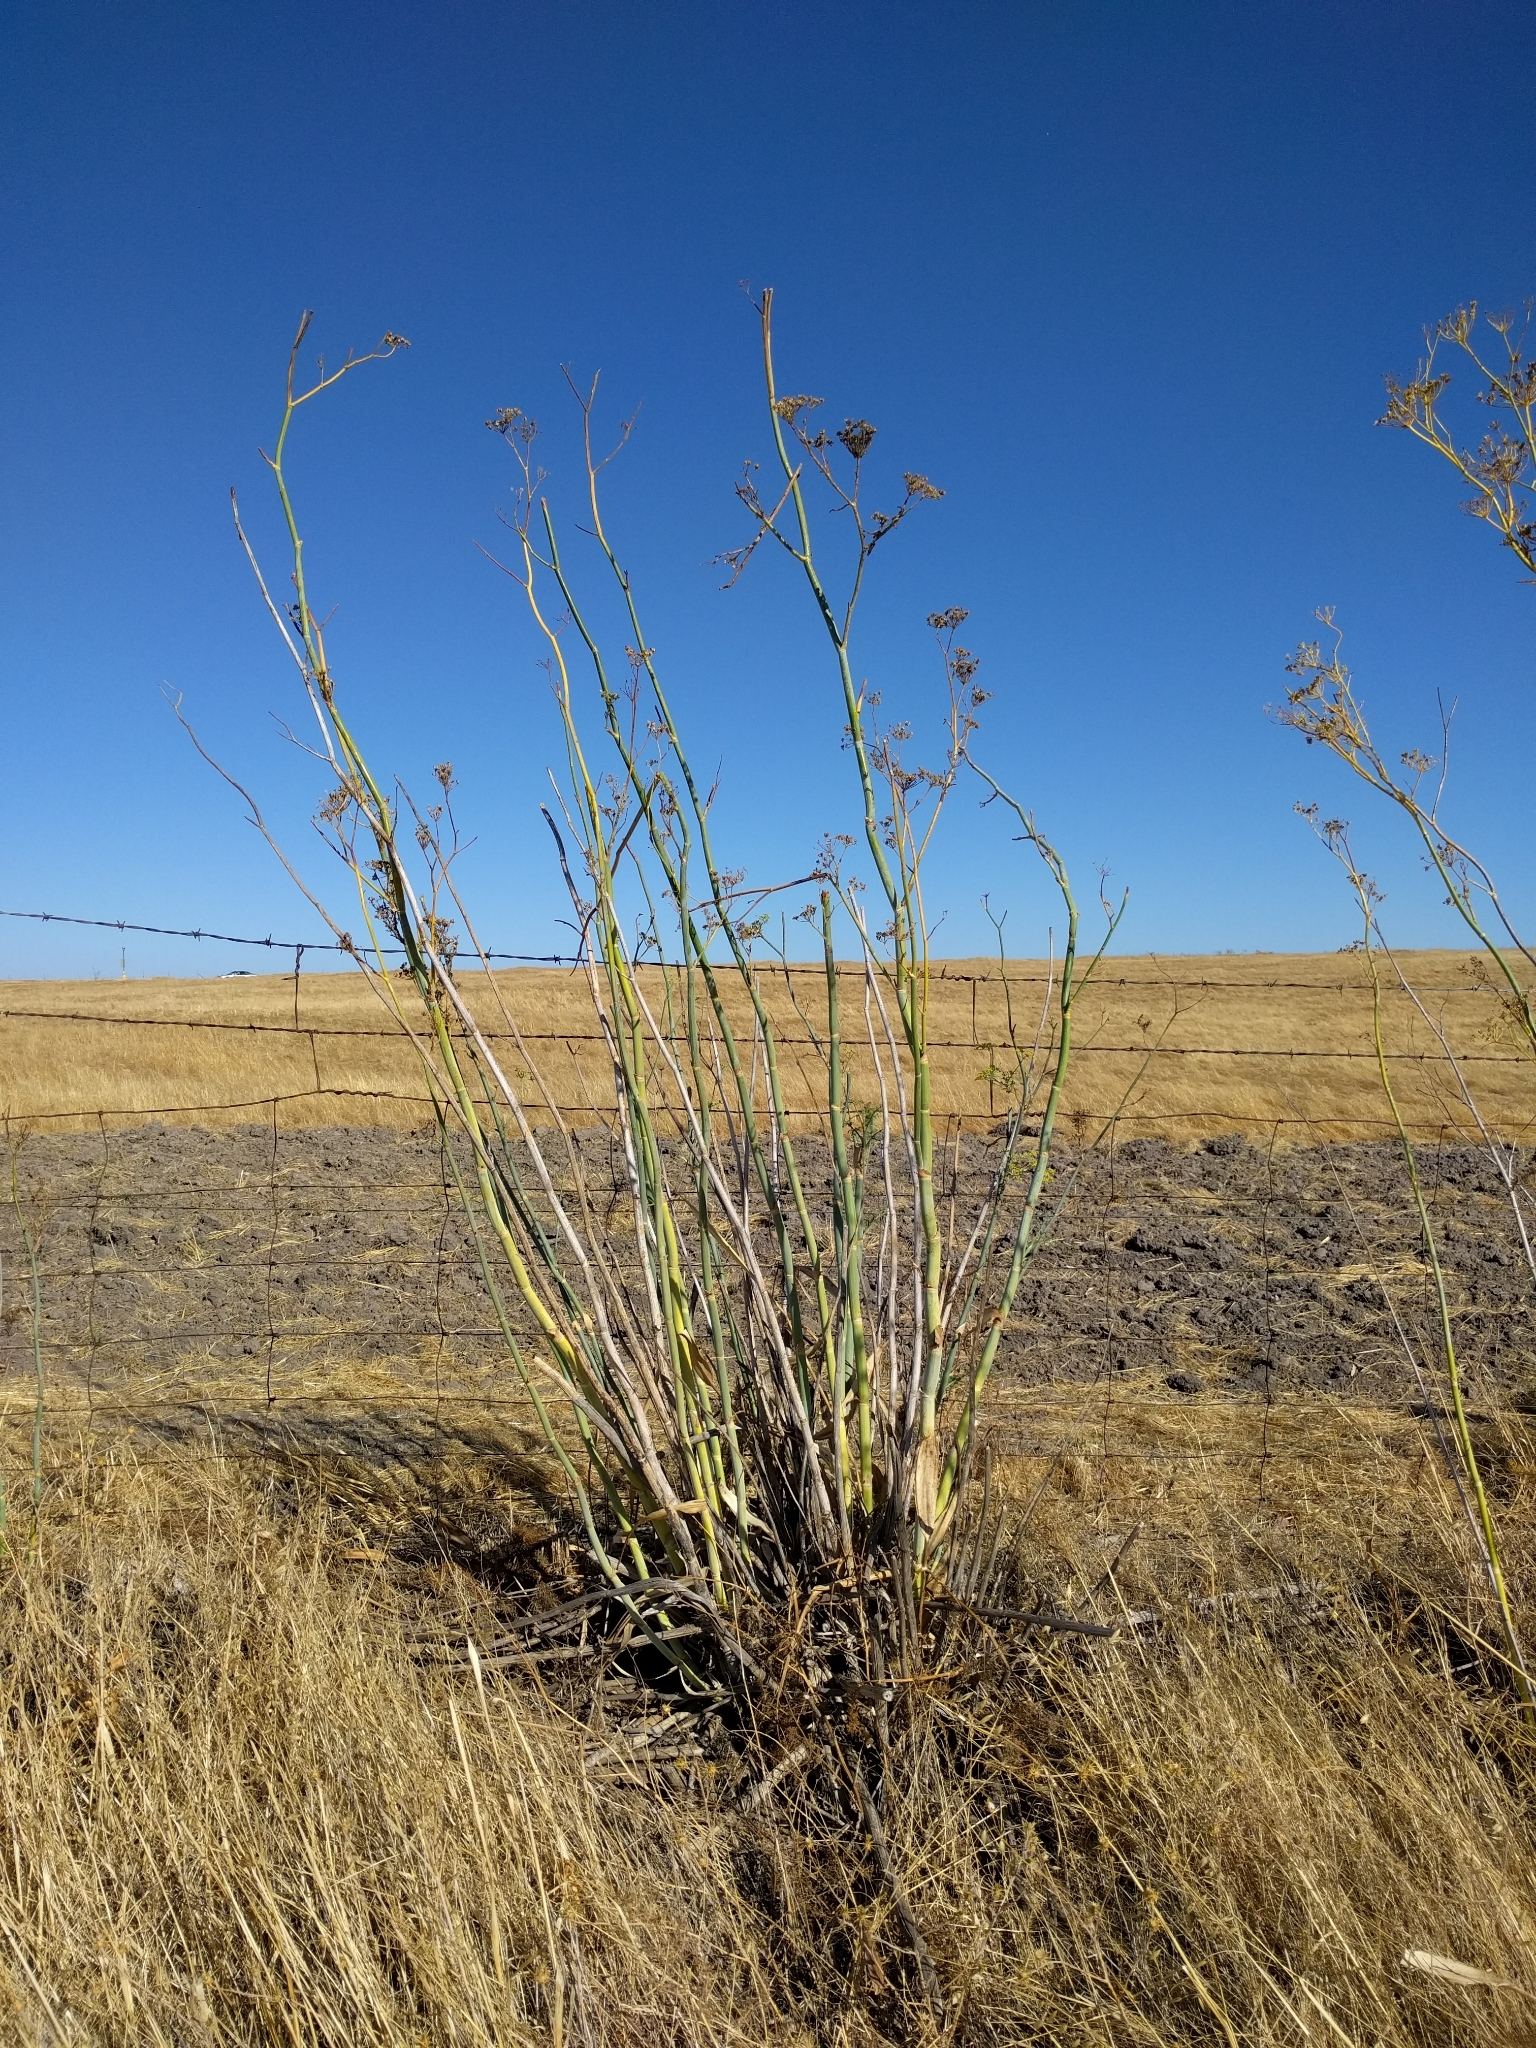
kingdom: Plantae
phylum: Tracheophyta
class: Magnoliopsida
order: Apiales
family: Apiaceae
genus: Foeniculum
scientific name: Foeniculum vulgare
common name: Fennel
